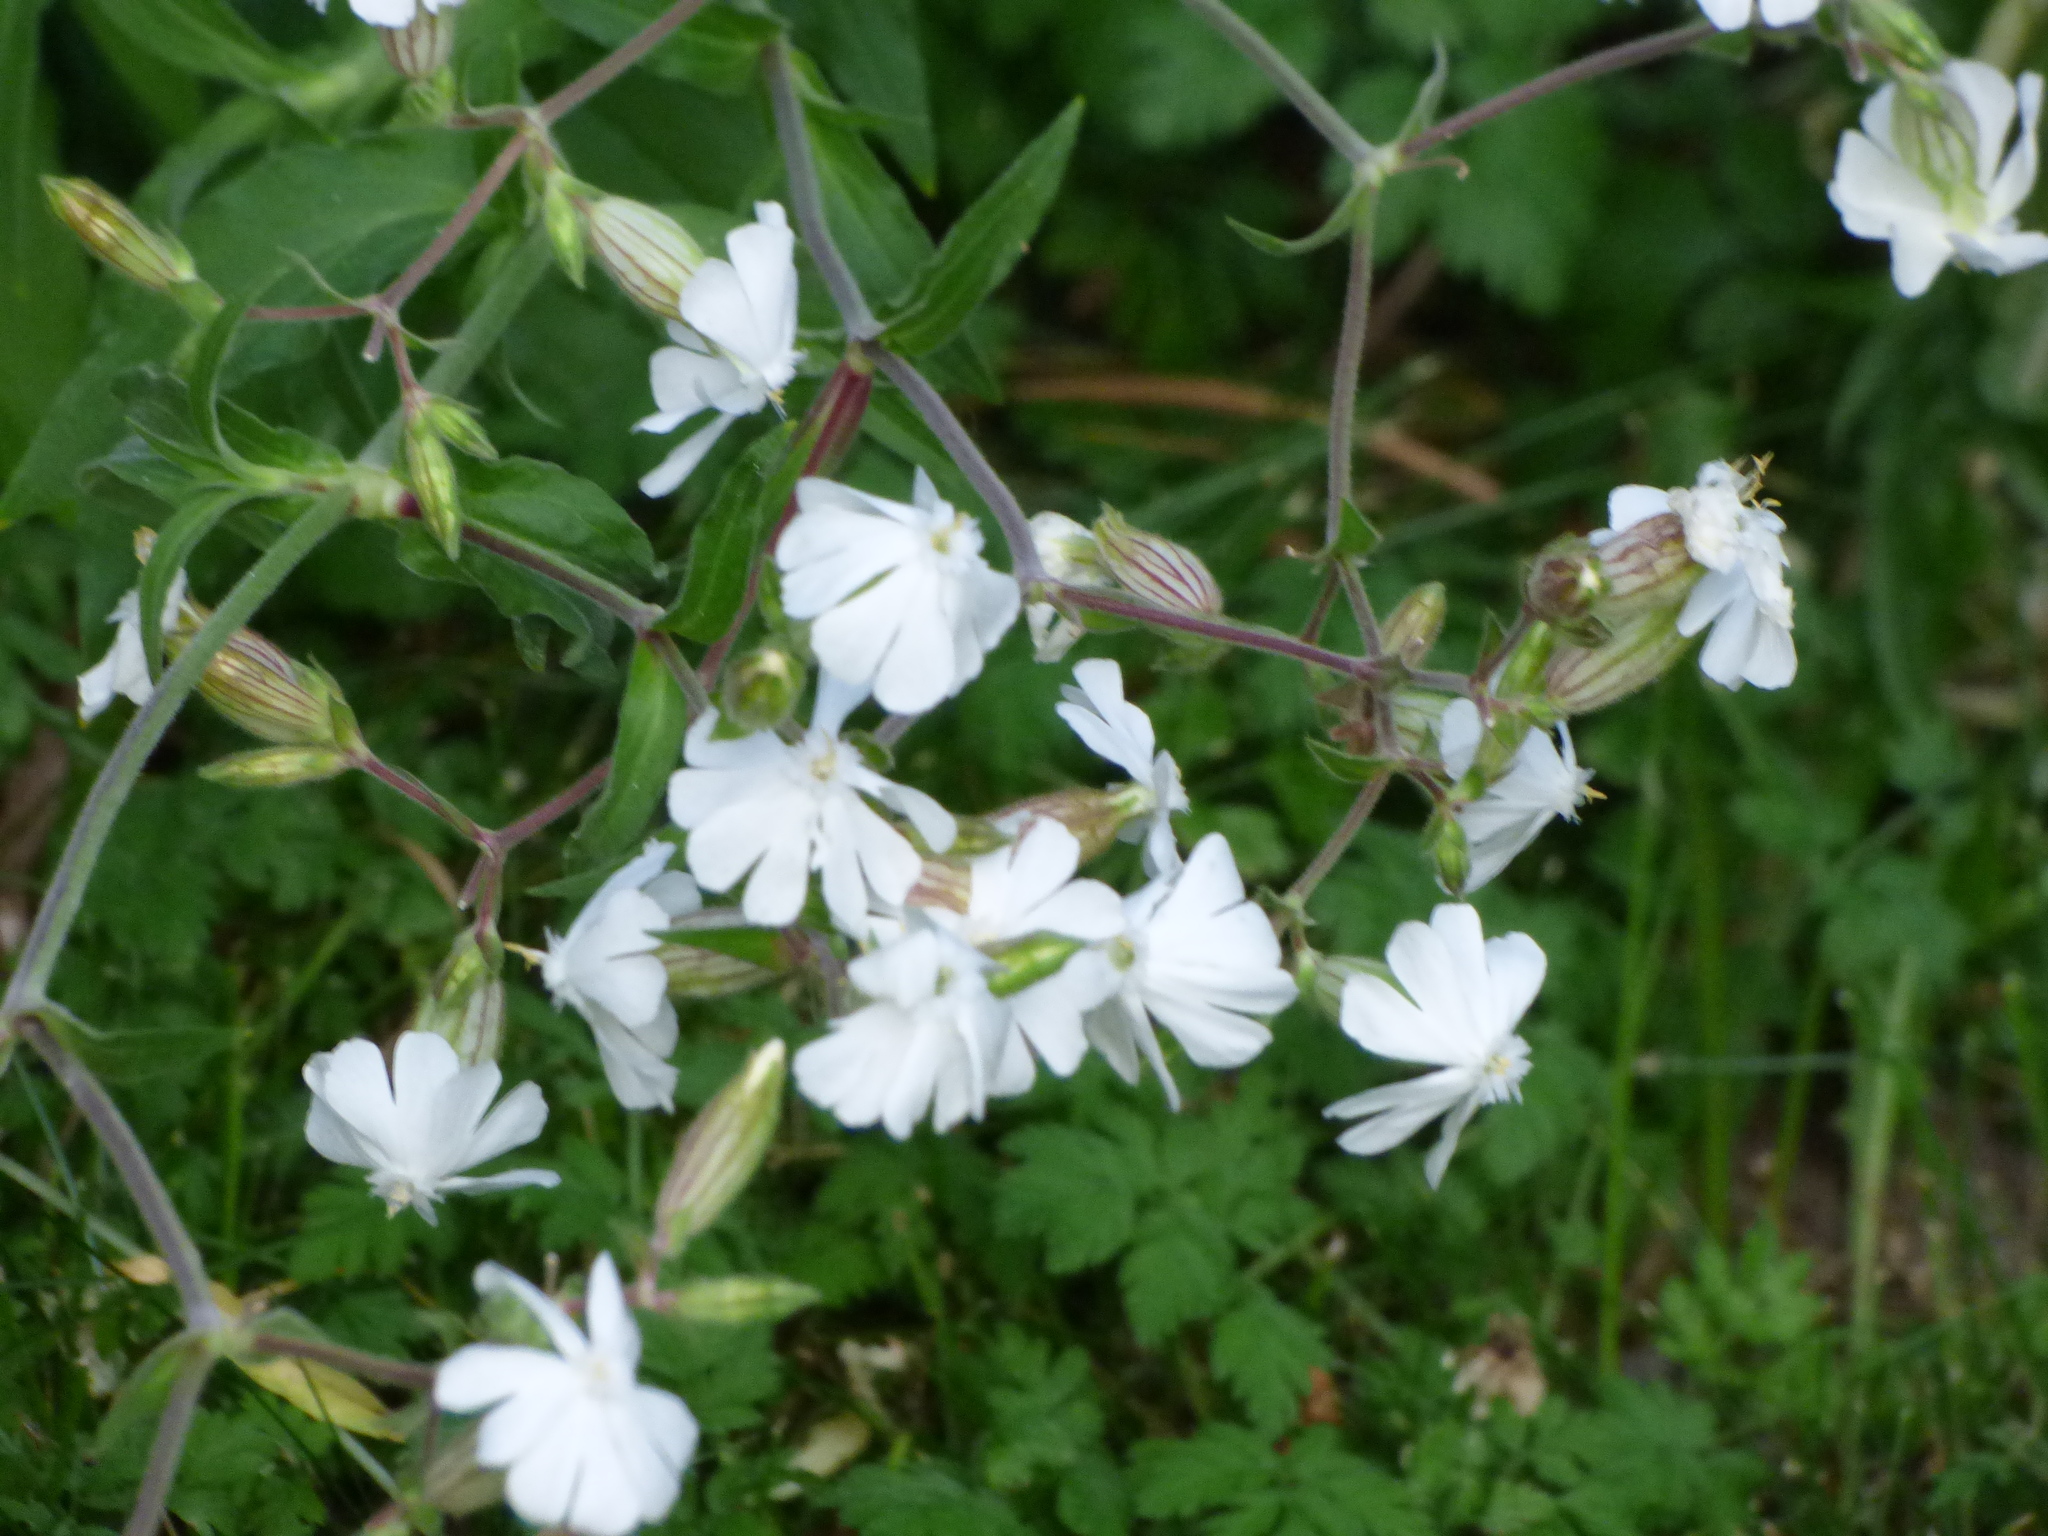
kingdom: Plantae
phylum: Tracheophyta
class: Magnoliopsida
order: Caryophyllales
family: Caryophyllaceae
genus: Silene
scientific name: Silene latifolia
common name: White campion
